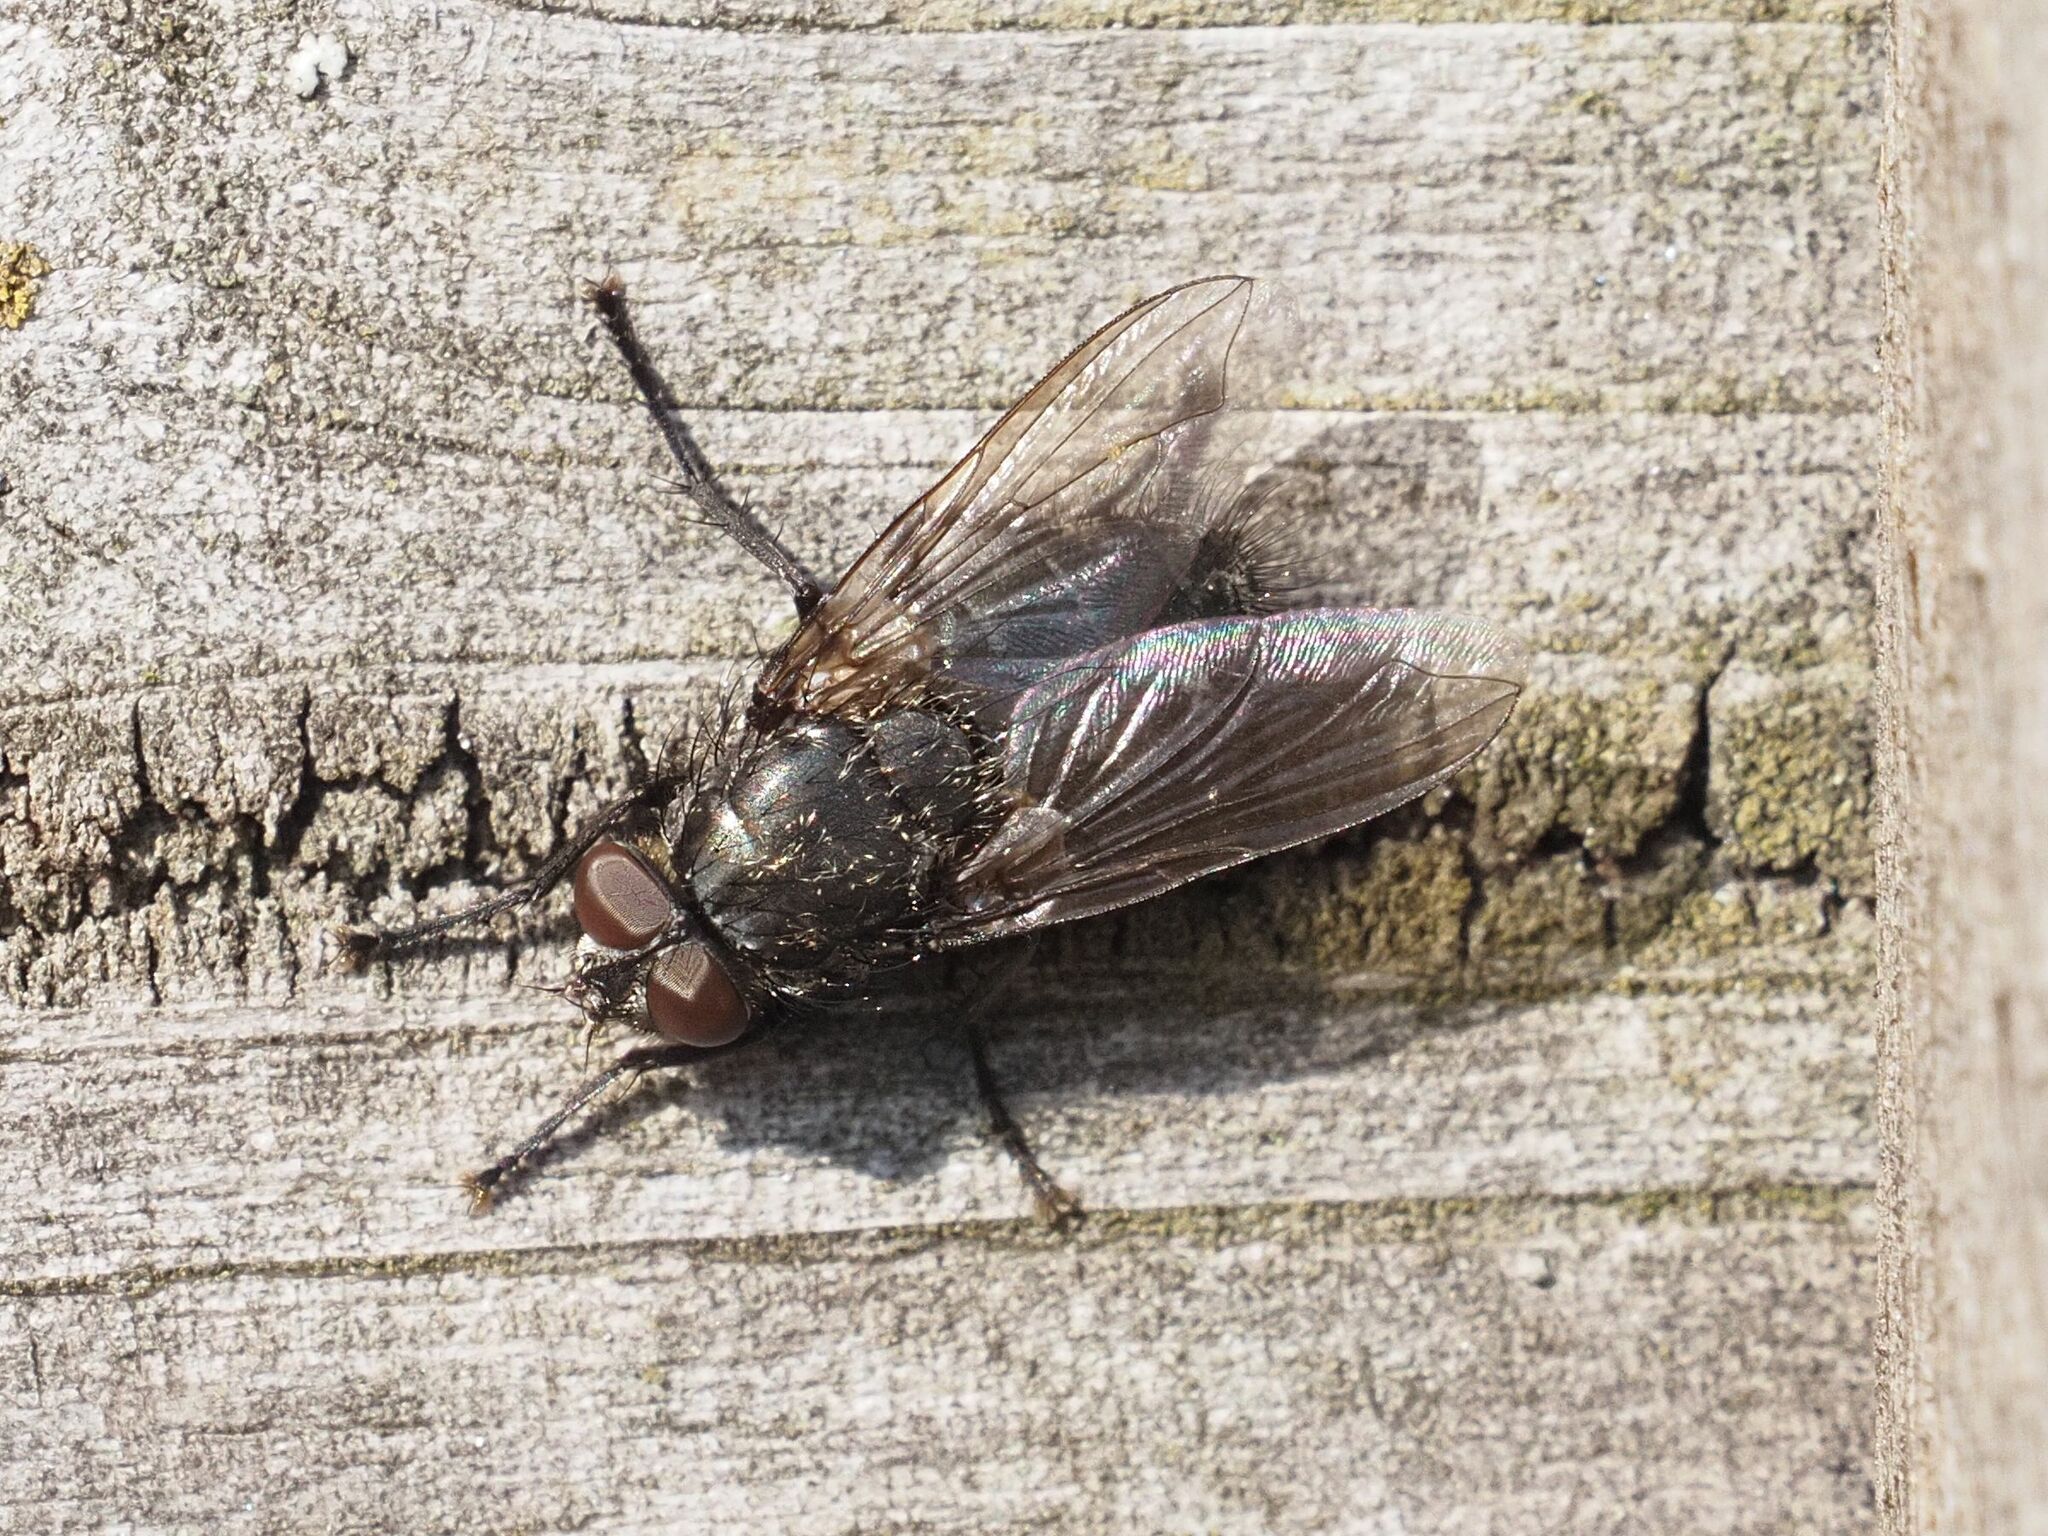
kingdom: Animalia
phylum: Arthropoda
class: Insecta
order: Diptera
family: Polleniidae
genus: Pollenia
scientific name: Pollenia vagabunda
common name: Vagabund cluster fly
